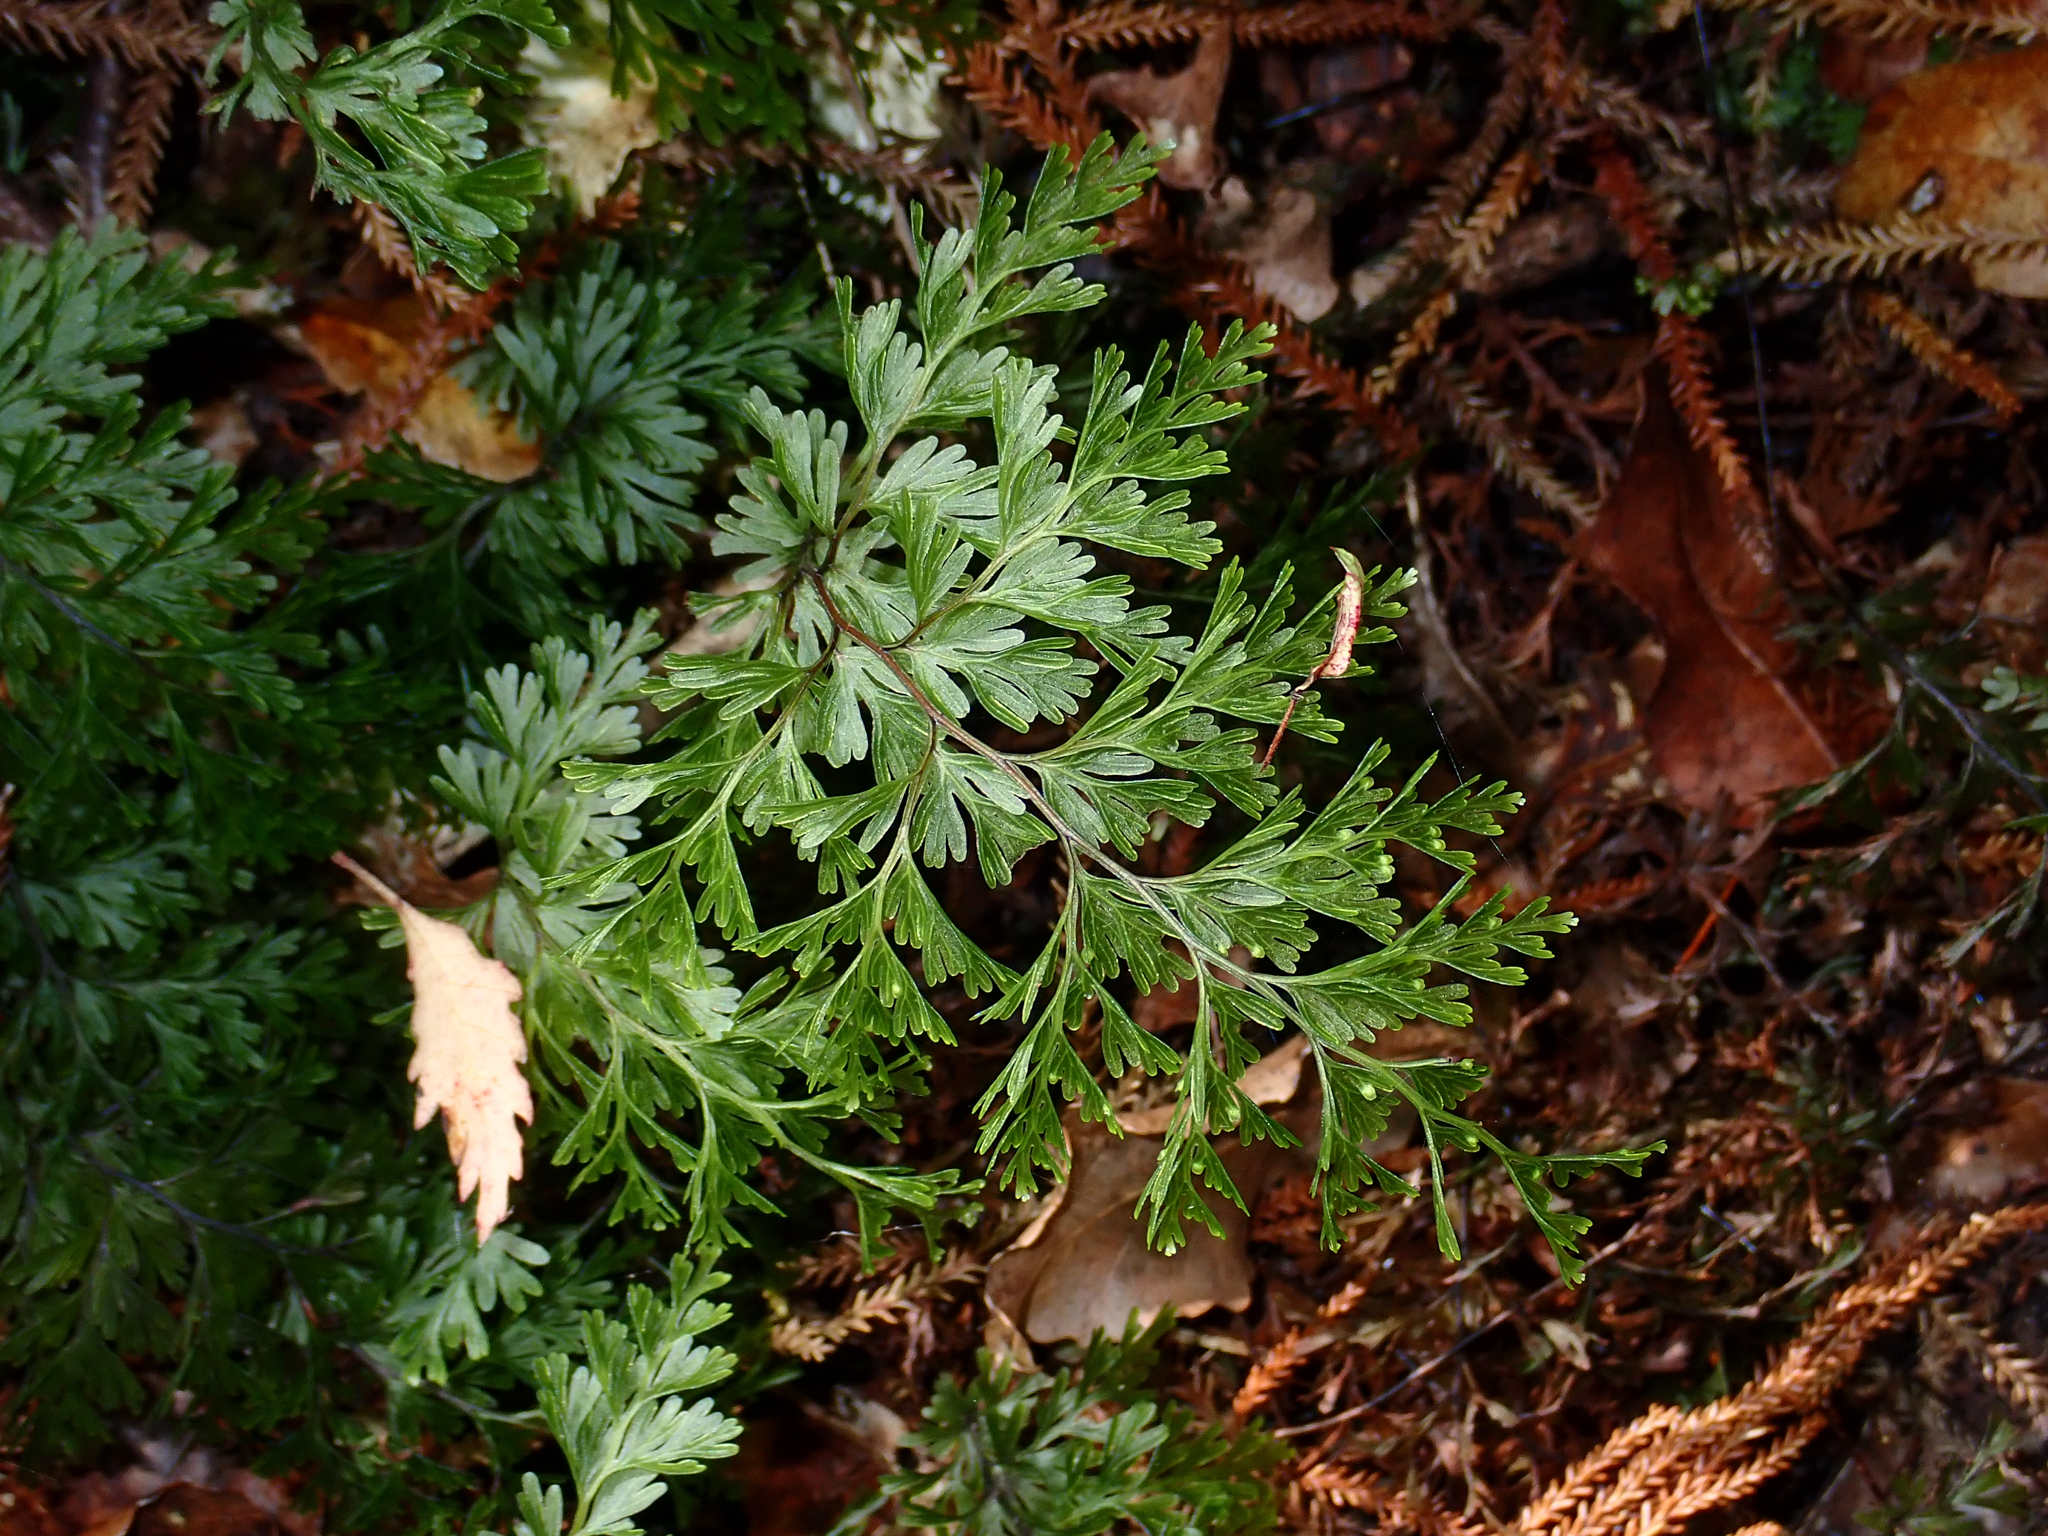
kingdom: Plantae
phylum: Tracheophyta
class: Polypodiopsida
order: Hymenophyllales
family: Hymenophyllaceae
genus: Hymenophyllum
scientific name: Hymenophyllum demissum
